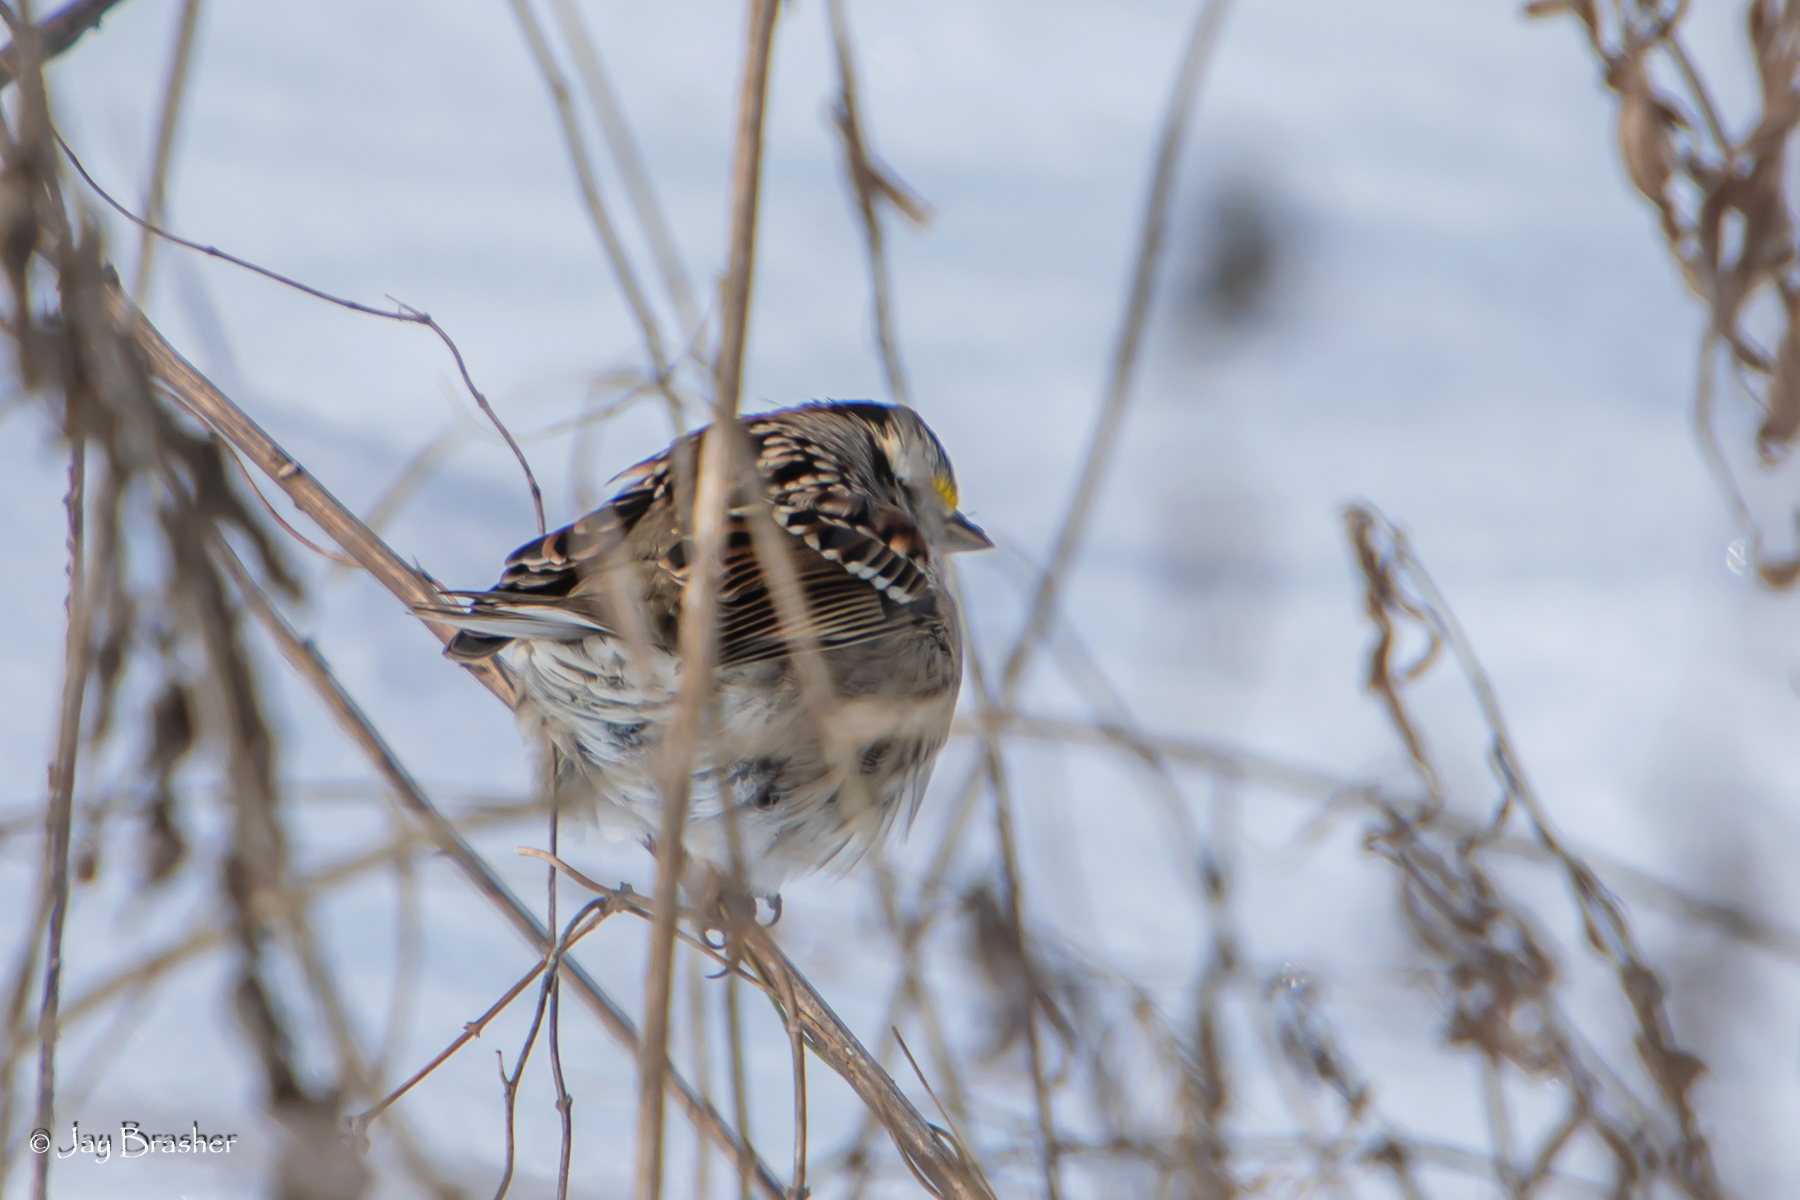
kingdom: Animalia
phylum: Chordata
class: Aves
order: Passeriformes
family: Passerellidae
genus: Zonotrichia
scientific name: Zonotrichia albicollis
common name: White-throated sparrow
